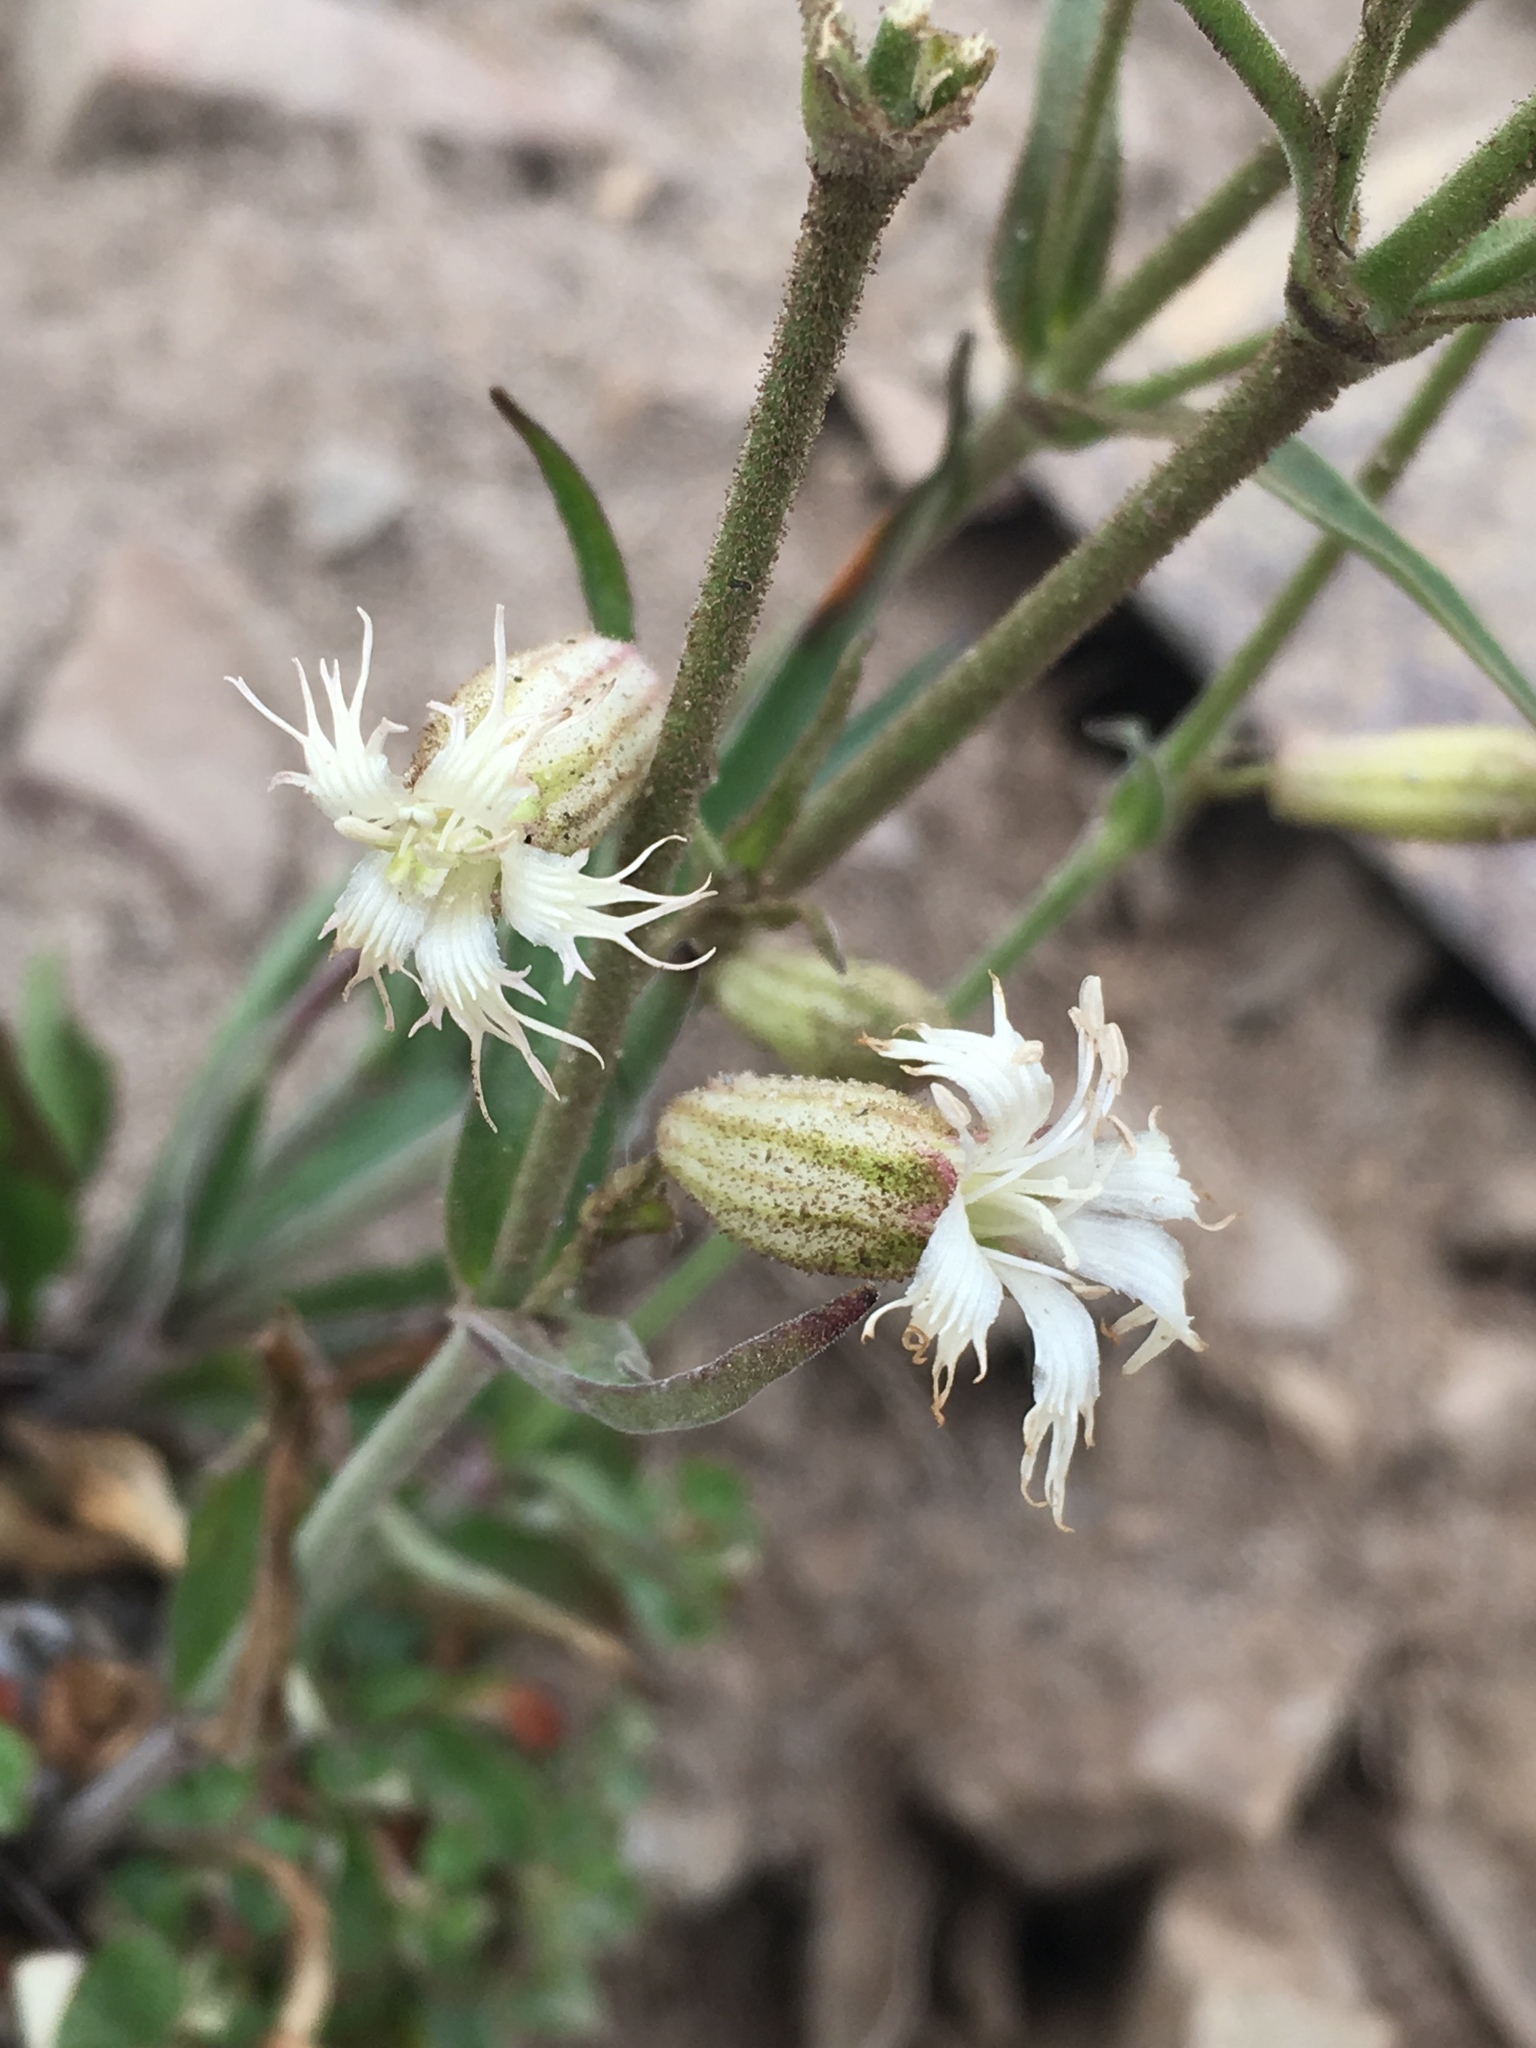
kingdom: Plantae
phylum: Tracheophyta
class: Magnoliopsida
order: Caryophyllales
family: Caryophyllaceae
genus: Silene
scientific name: Silene oregana
